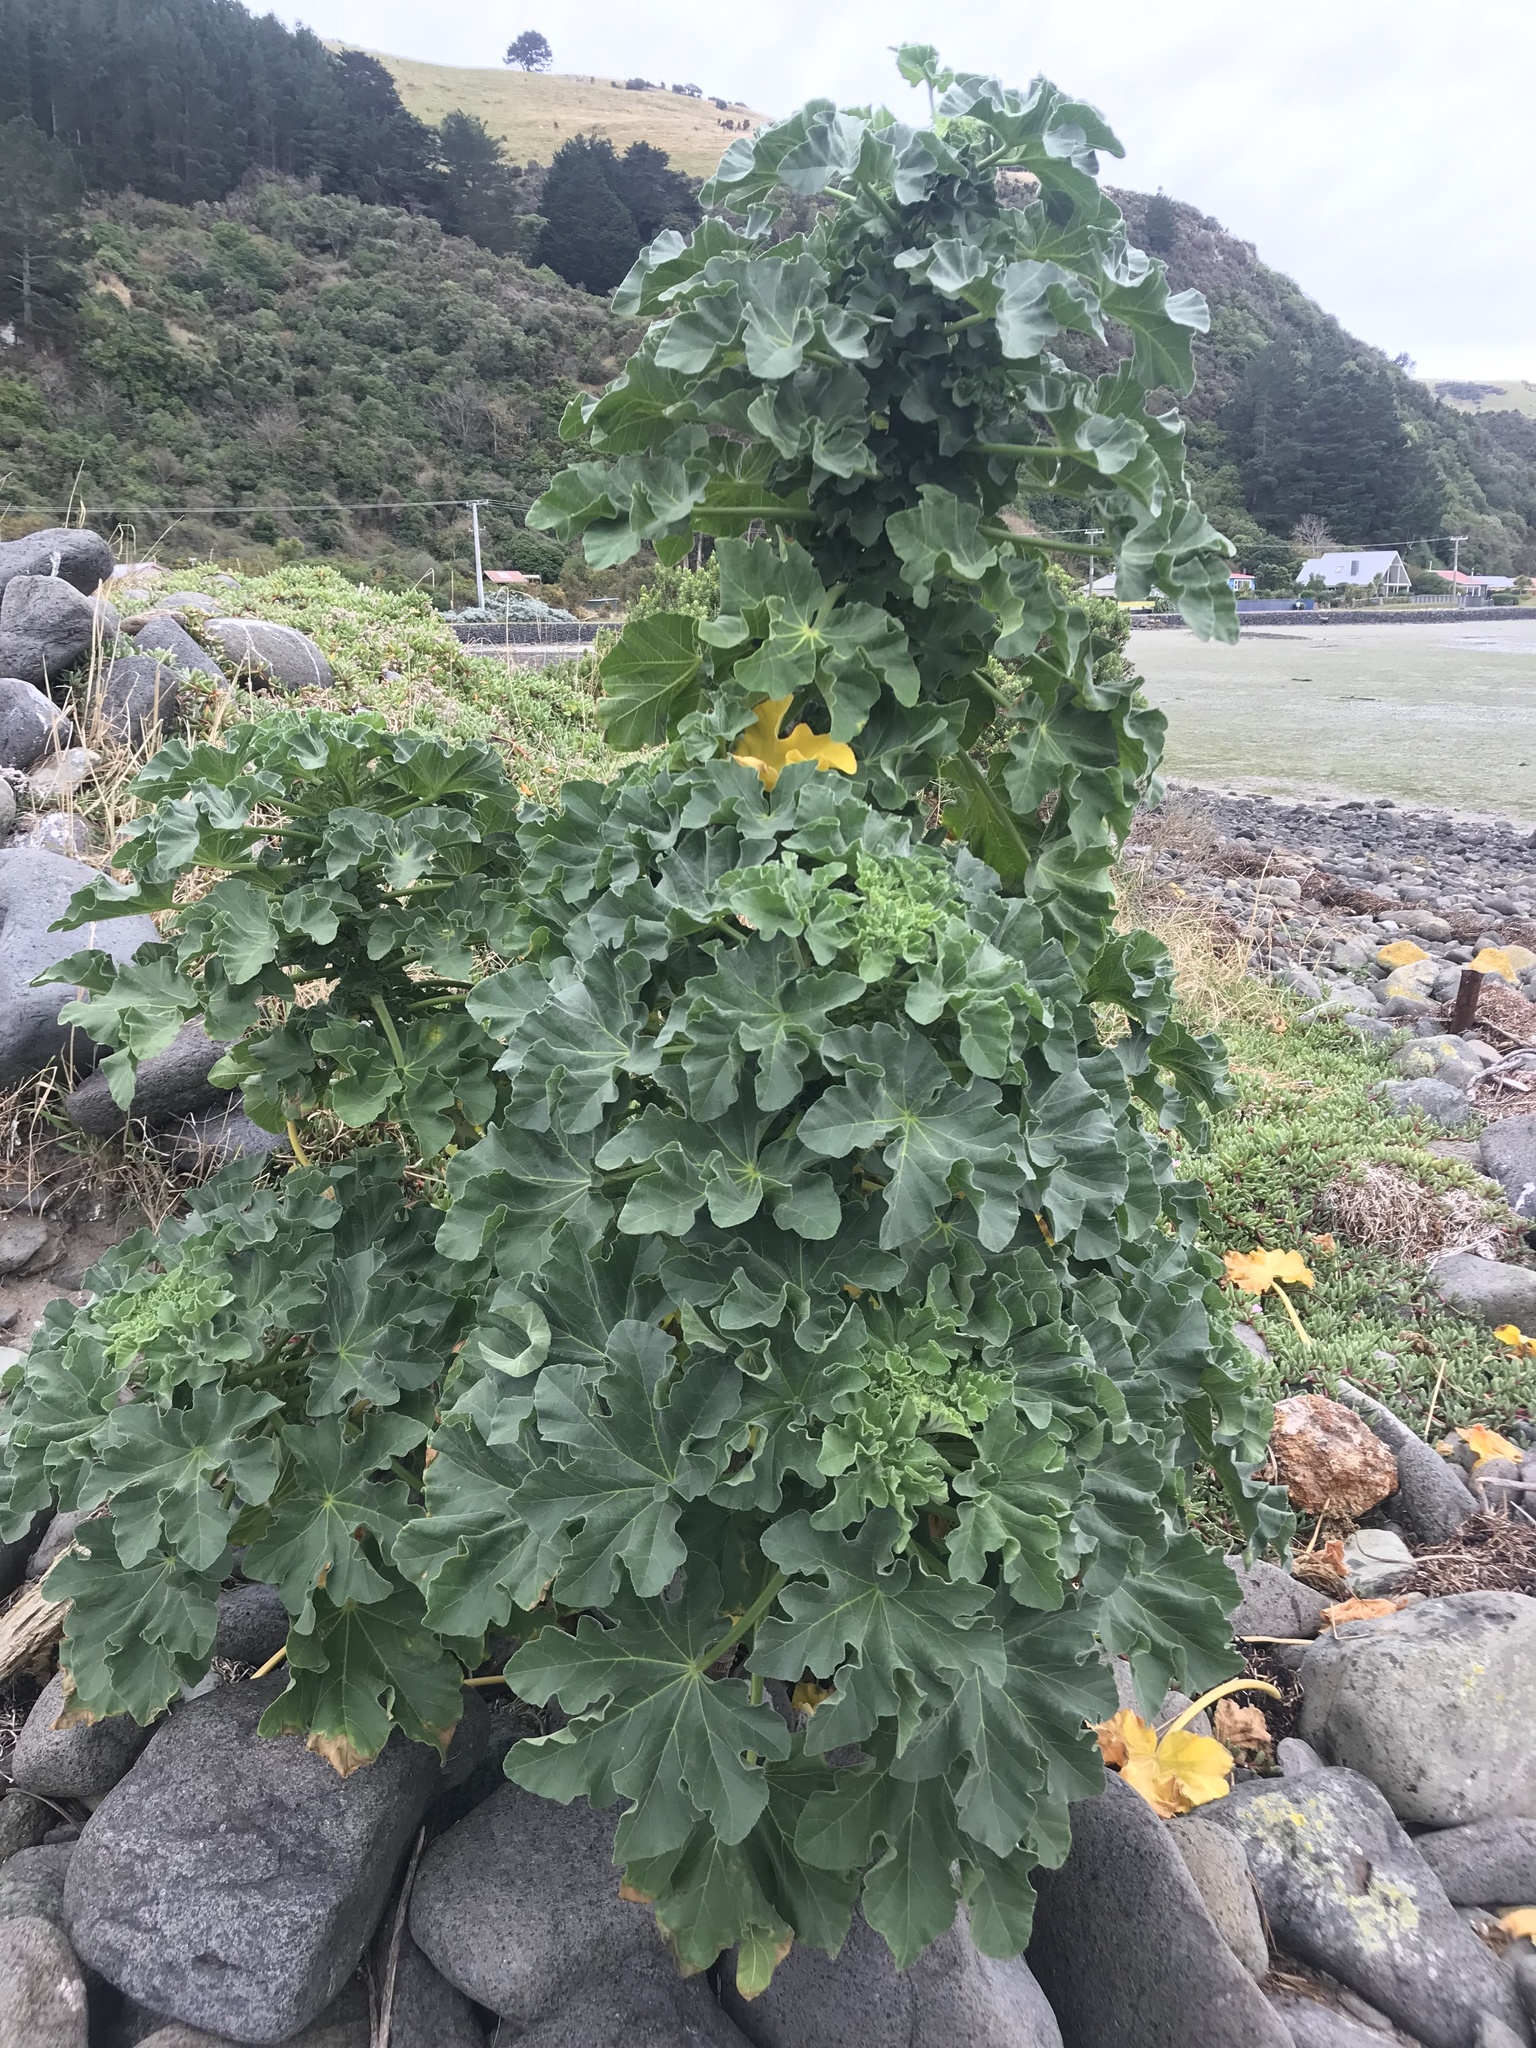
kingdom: Plantae
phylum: Tracheophyta
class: Magnoliopsida
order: Malvales
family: Malvaceae
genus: Malva
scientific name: Malva arborea
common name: Tree mallow
